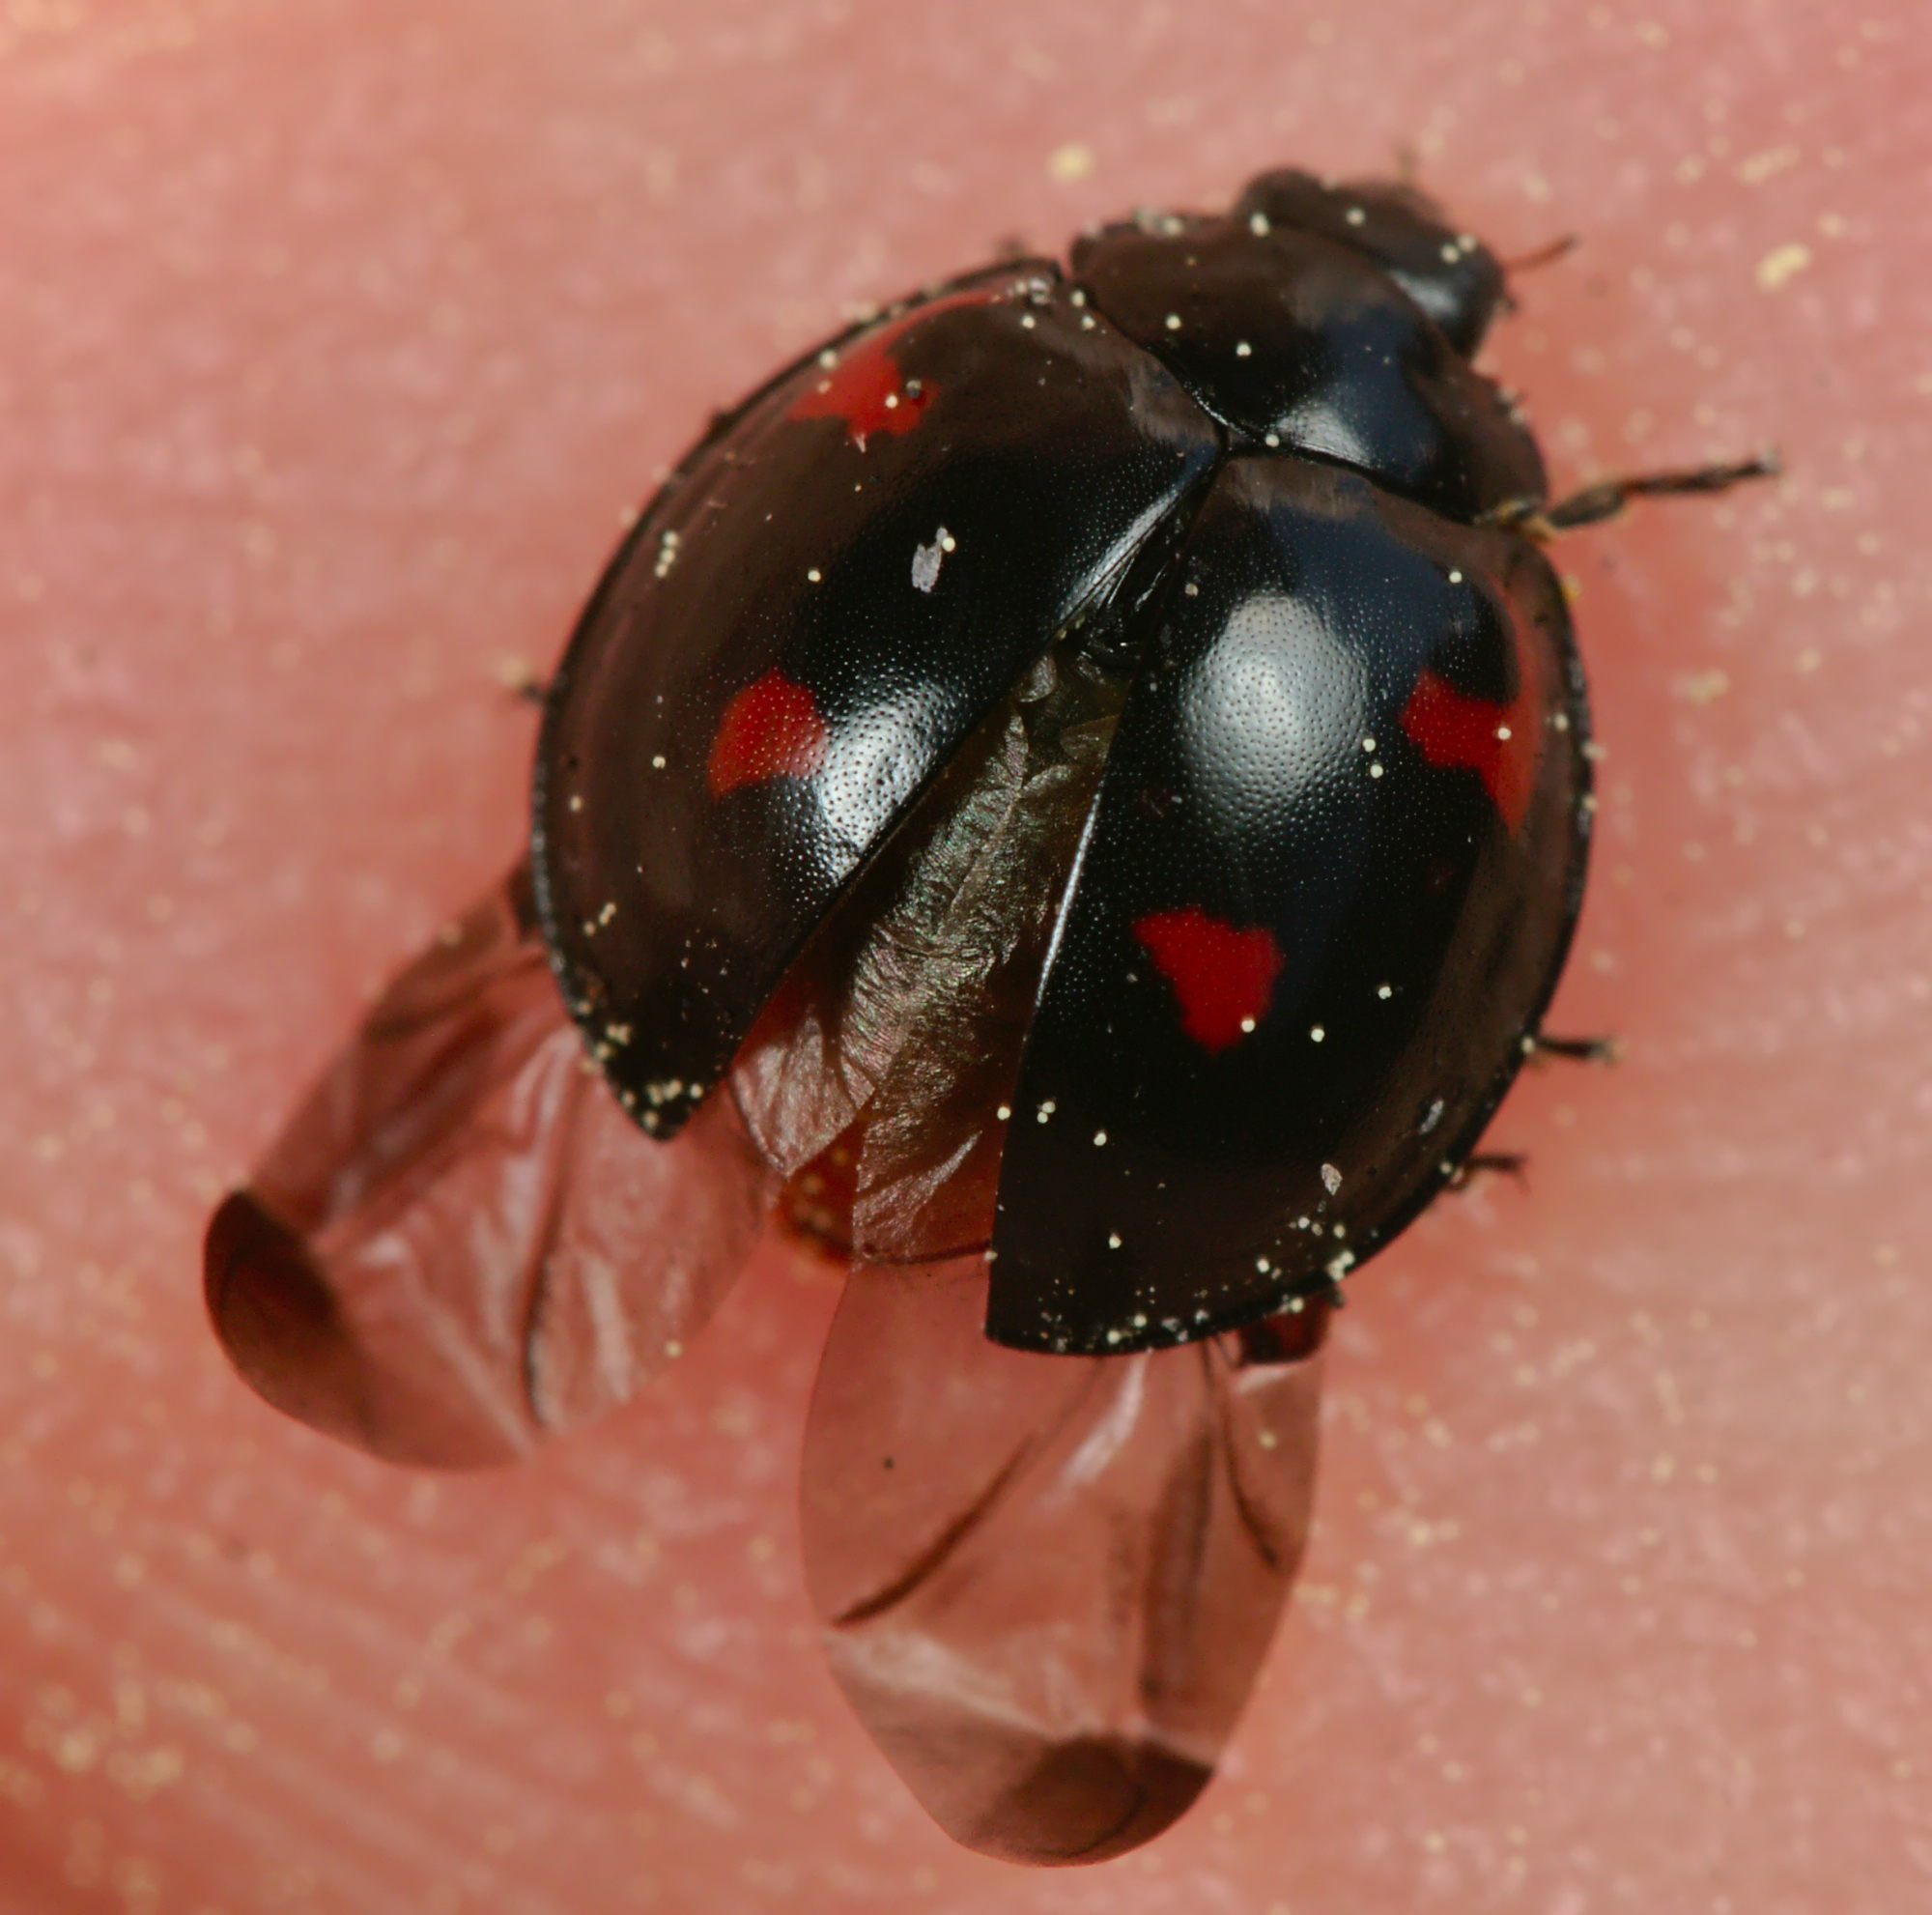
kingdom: Animalia
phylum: Arthropoda
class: Insecta
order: Coleoptera
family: Coccinellidae
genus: Brumus
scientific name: Brumus quadripustulatus
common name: Ladybird beetle
